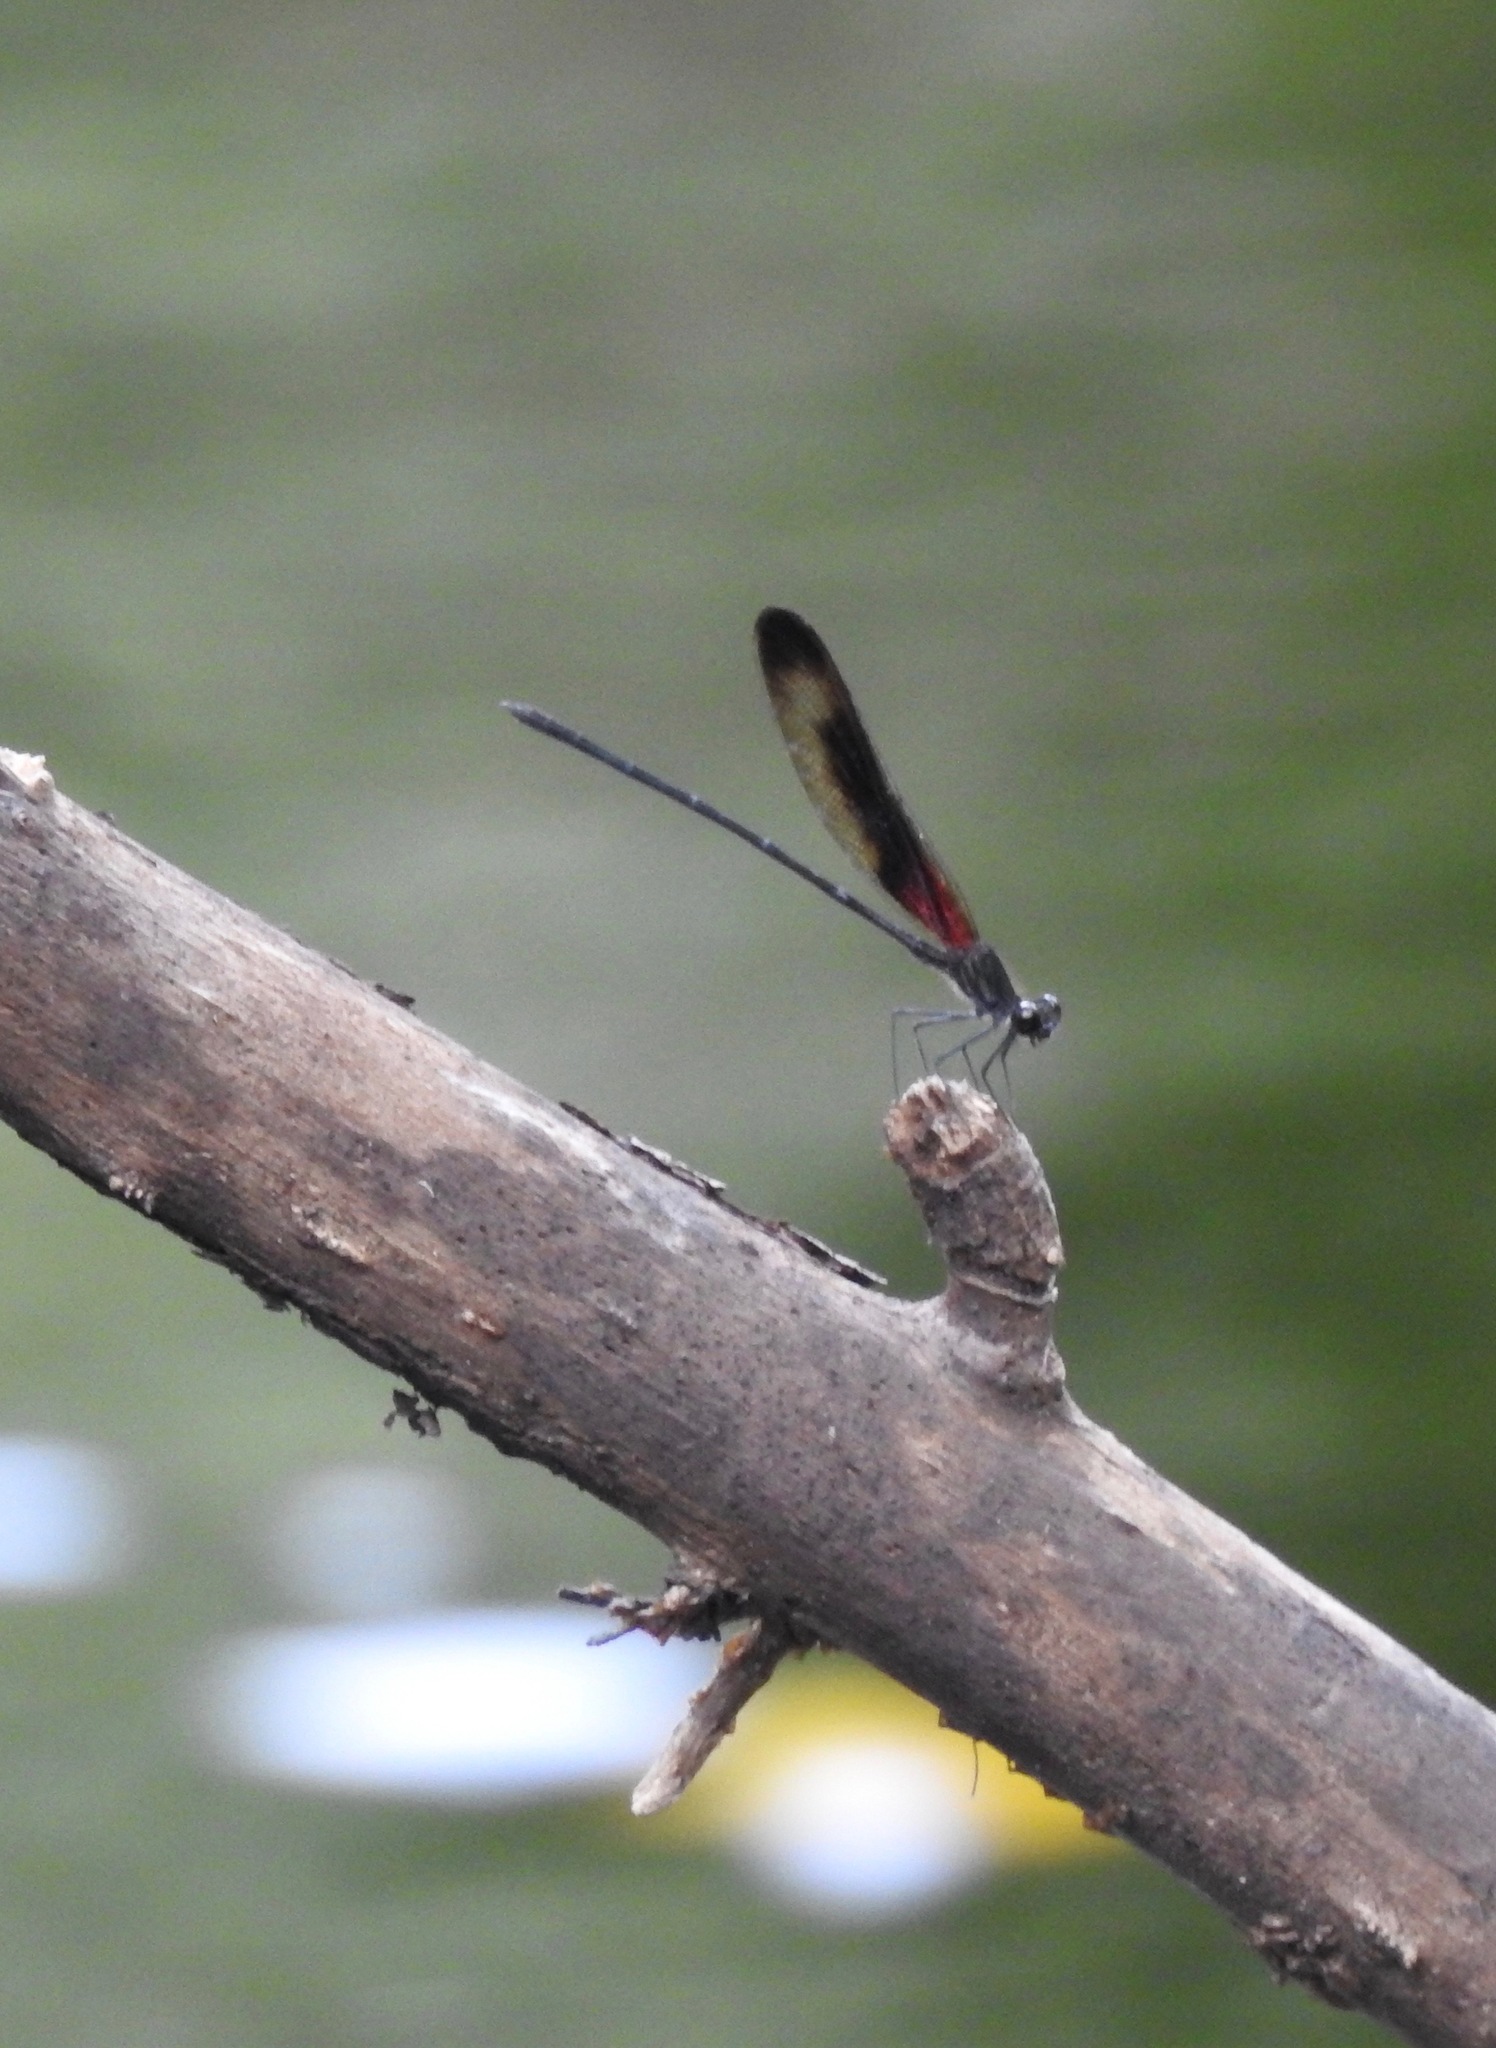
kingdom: Animalia
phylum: Arthropoda
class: Insecta
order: Odonata
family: Calopterygidae
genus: Hetaerina
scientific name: Hetaerina titia
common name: Smoky rubyspot
